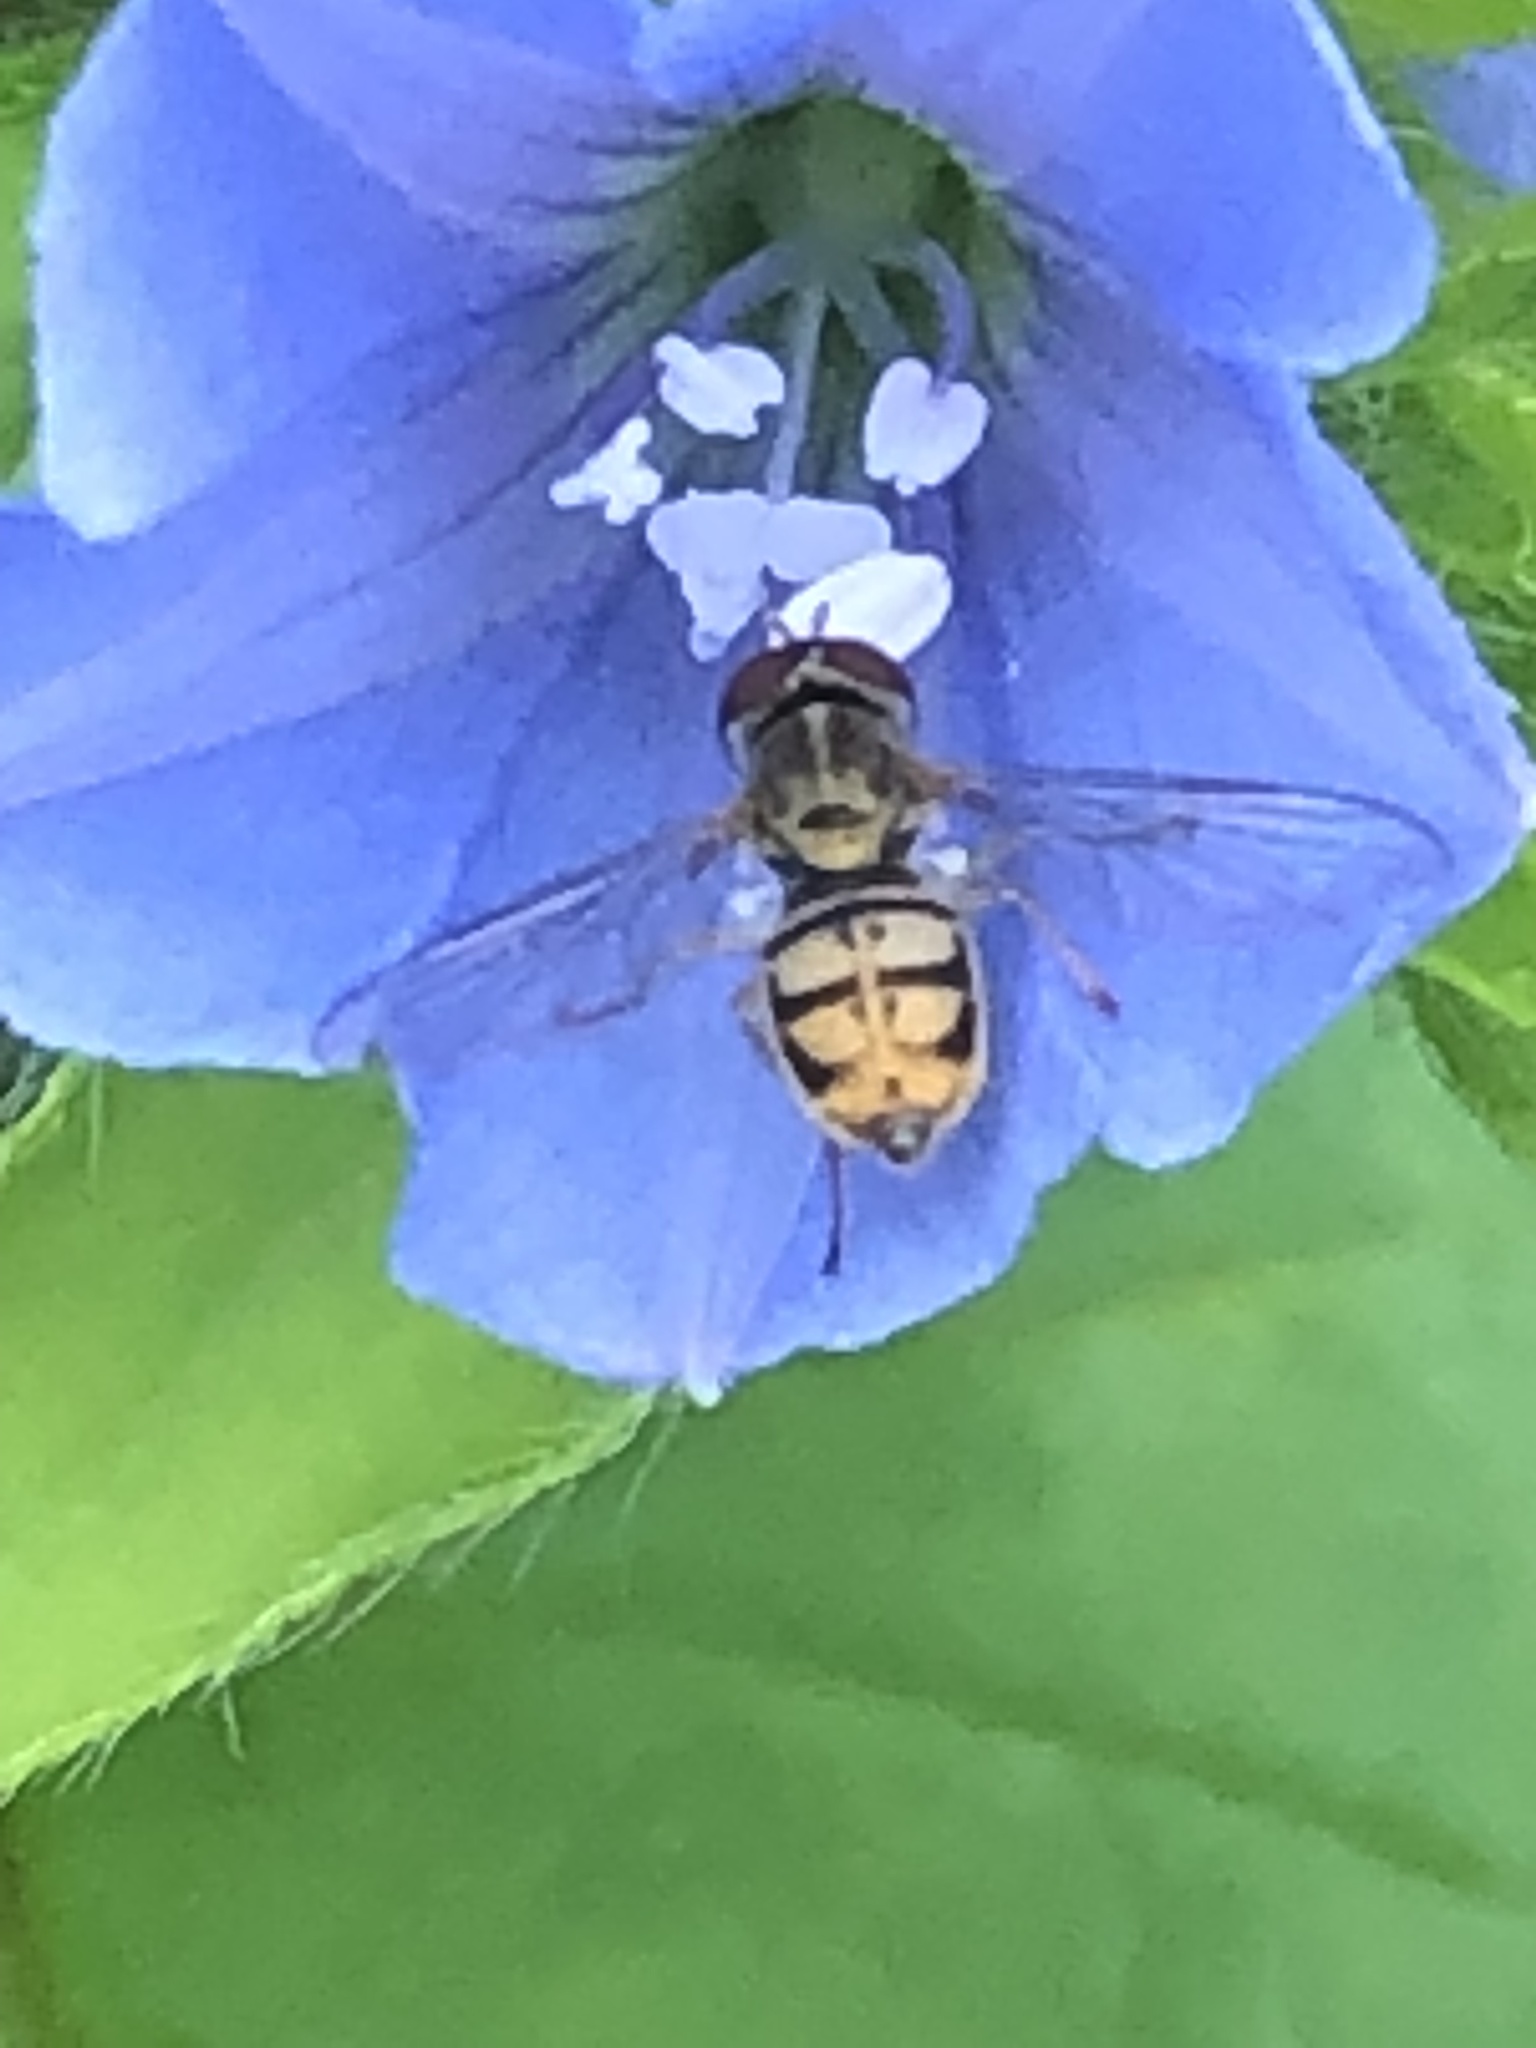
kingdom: Animalia
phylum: Arthropoda
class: Insecta
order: Diptera
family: Syrphidae
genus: Toxomerus
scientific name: Toxomerus marginatus
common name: Syrphid fly
